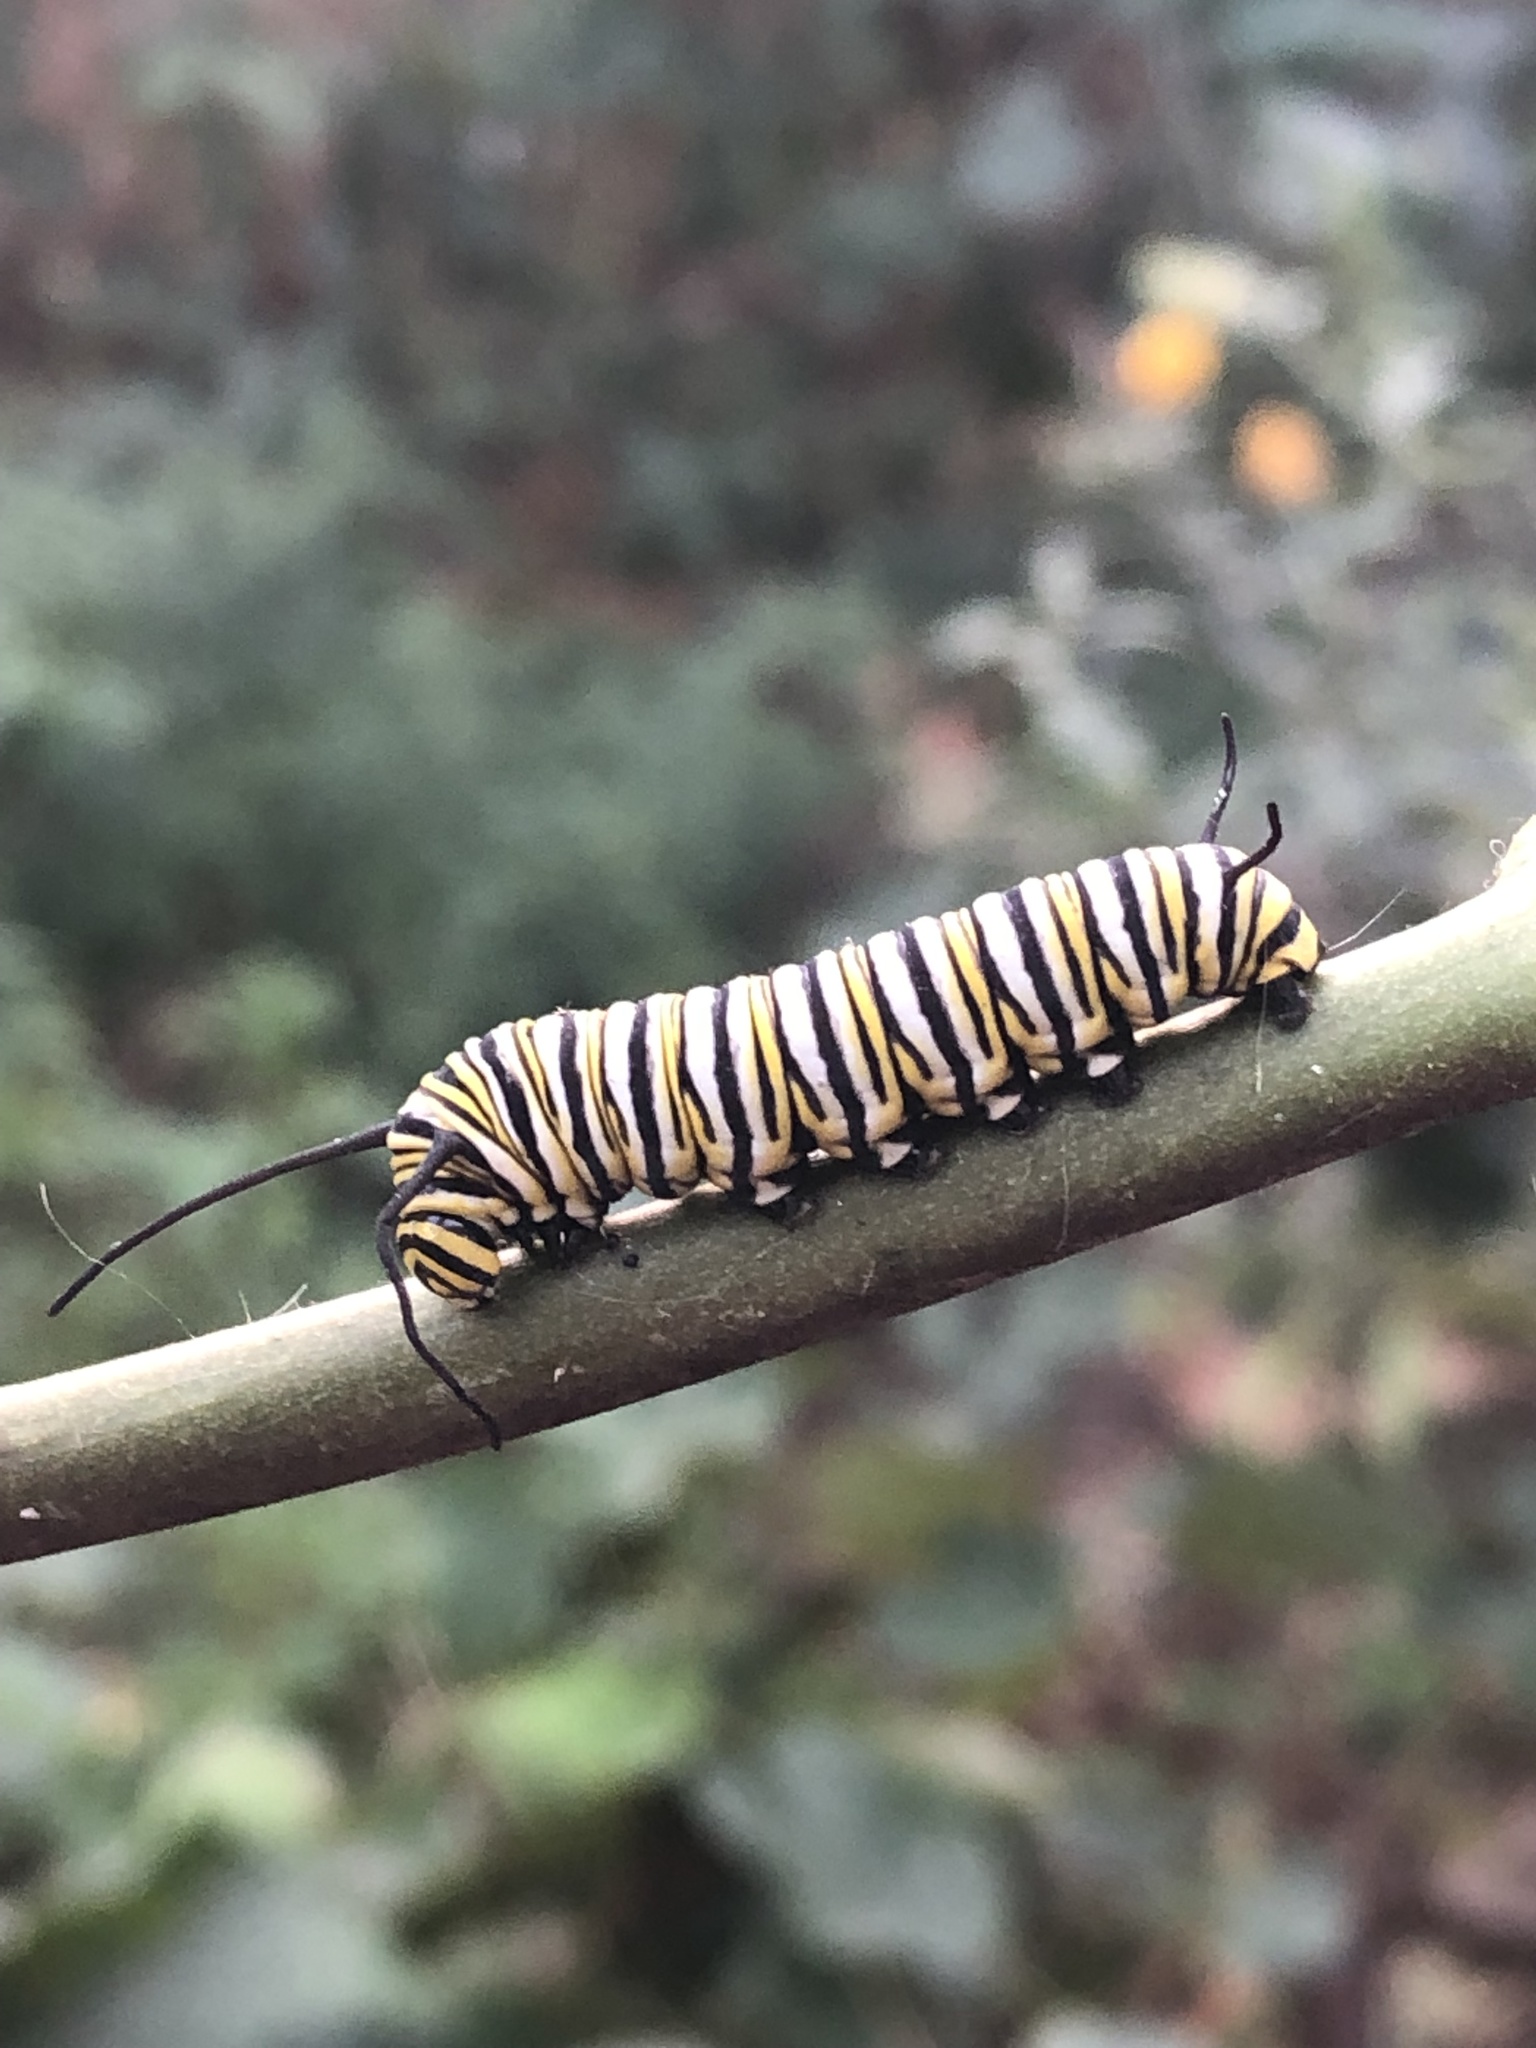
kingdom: Animalia
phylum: Arthropoda
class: Insecta
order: Lepidoptera
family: Nymphalidae
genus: Danaus
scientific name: Danaus plexippus
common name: Monarch
